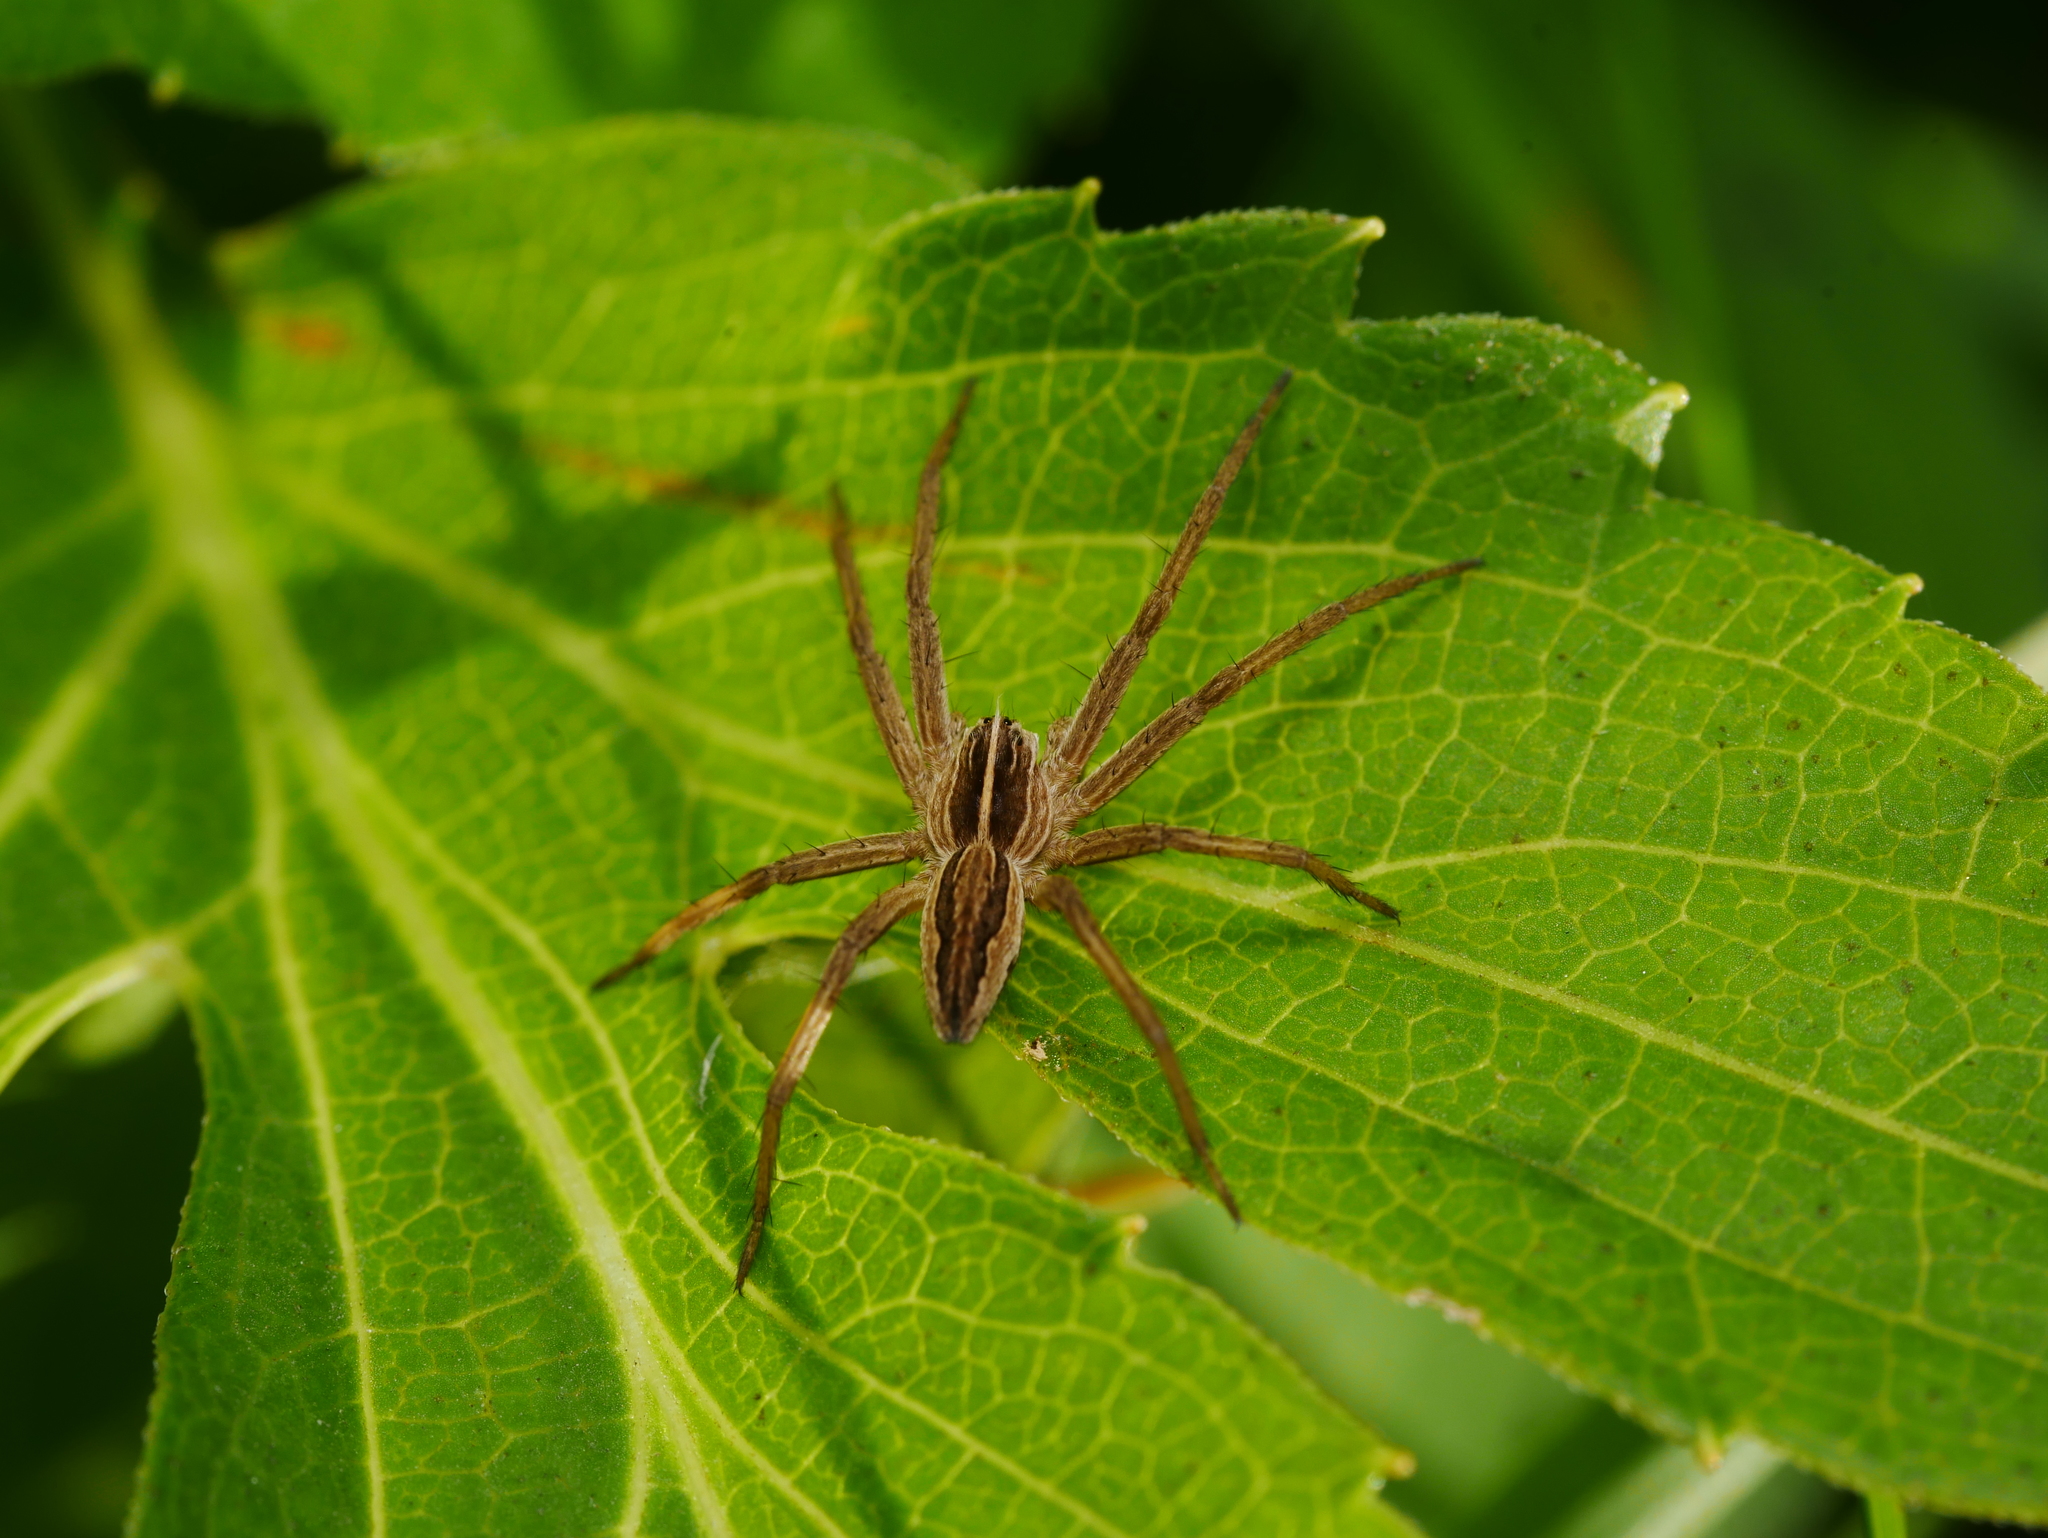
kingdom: Animalia
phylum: Arthropoda
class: Arachnida
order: Araneae
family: Pisauridae
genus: Pisaura
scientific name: Pisaura mirabilis
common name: Tent spider
